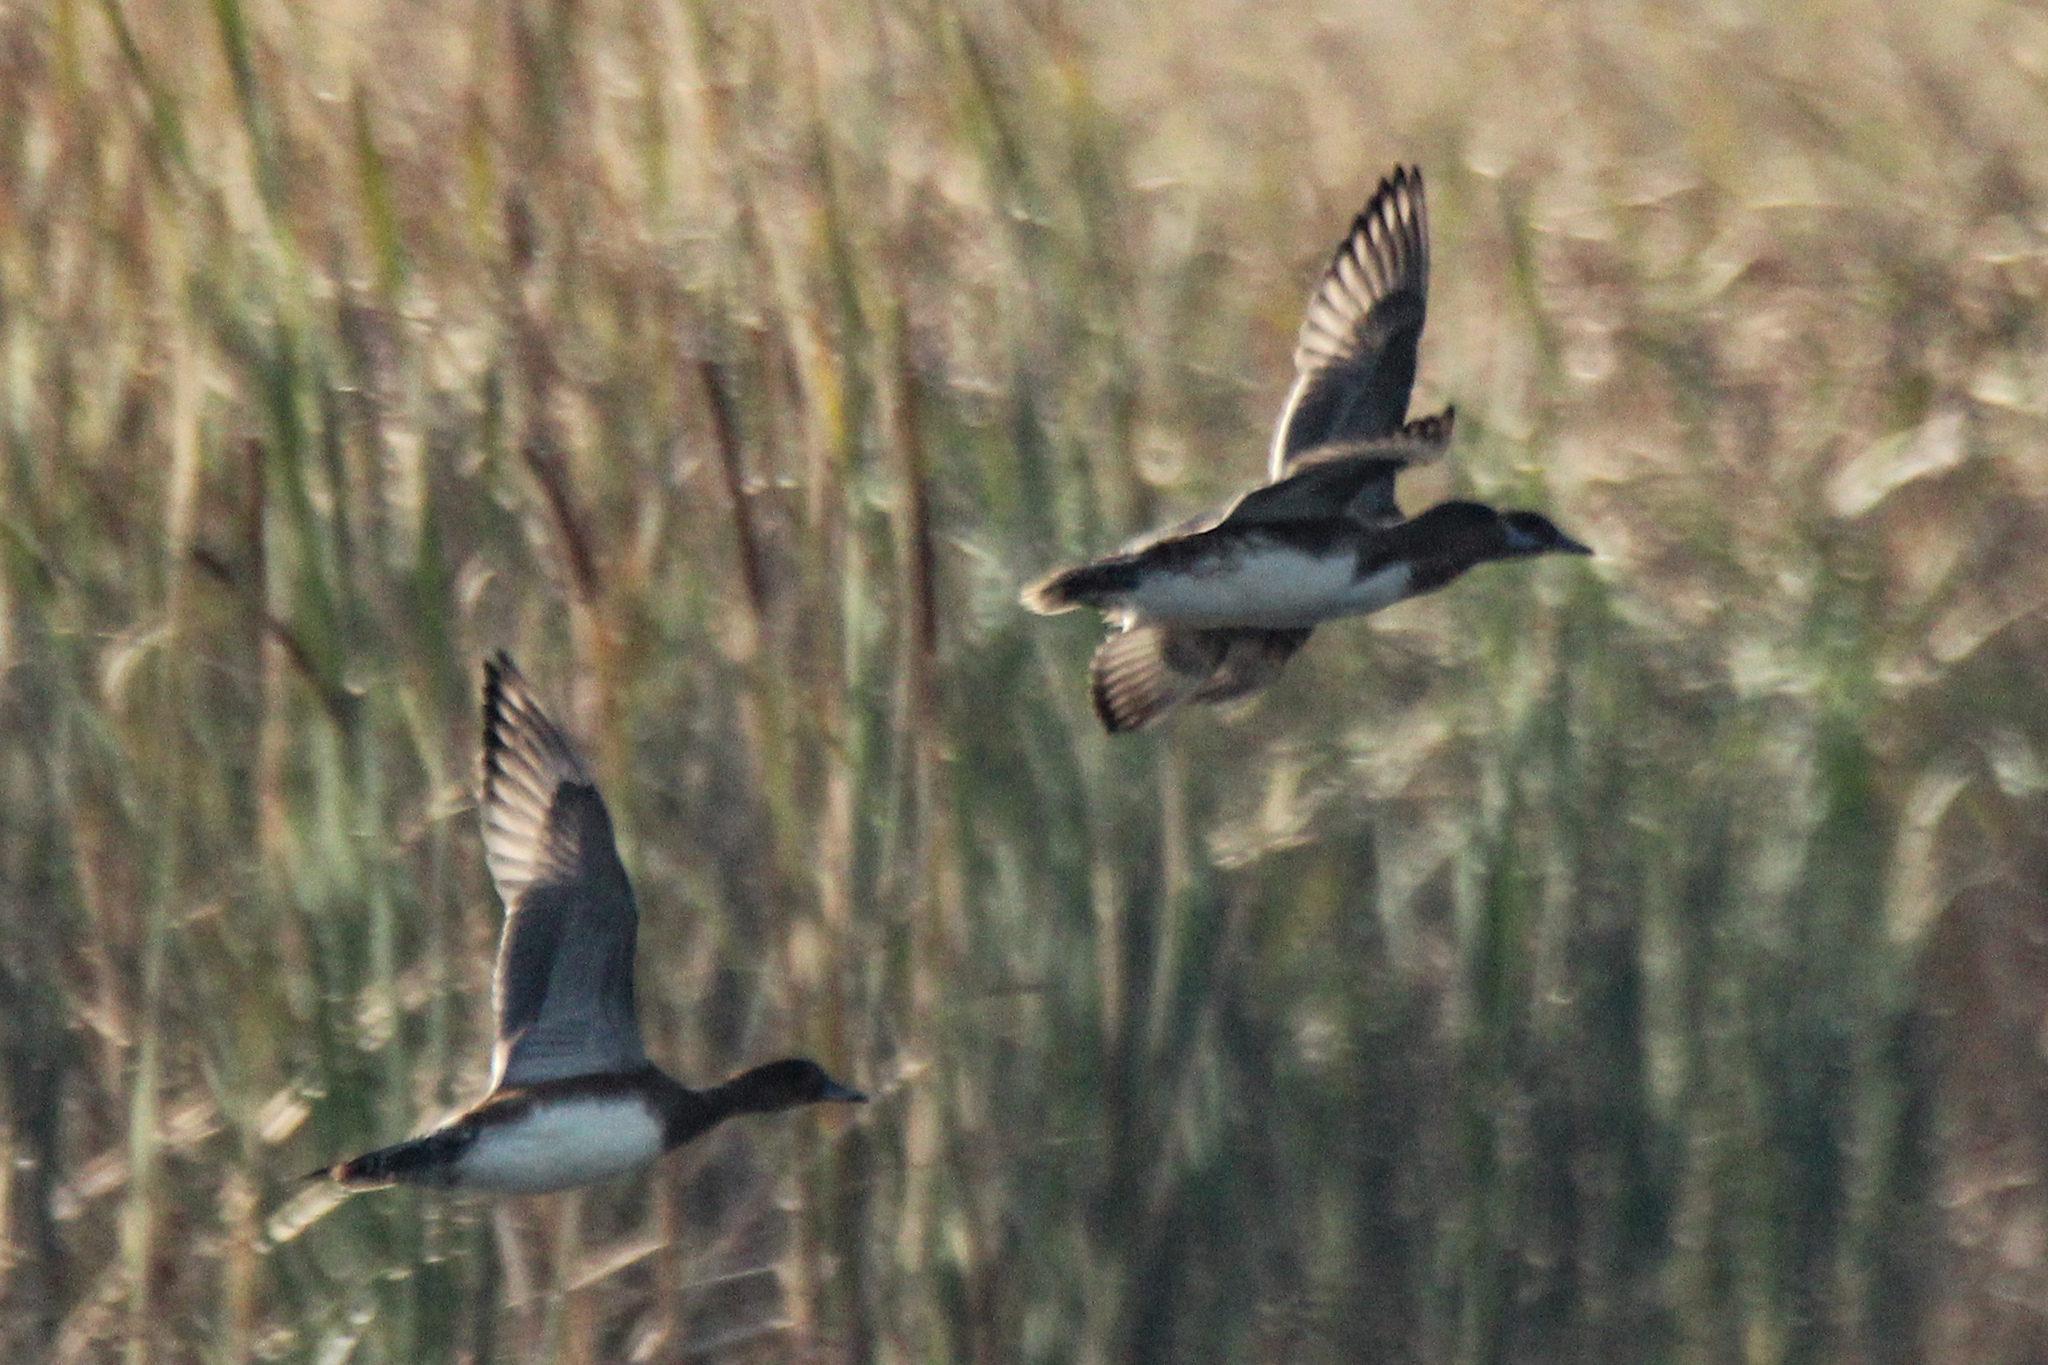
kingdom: Animalia
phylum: Chordata
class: Aves
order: Anseriformes
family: Anatidae
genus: Mareca
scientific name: Mareca penelope
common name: Eurasian wigeon
